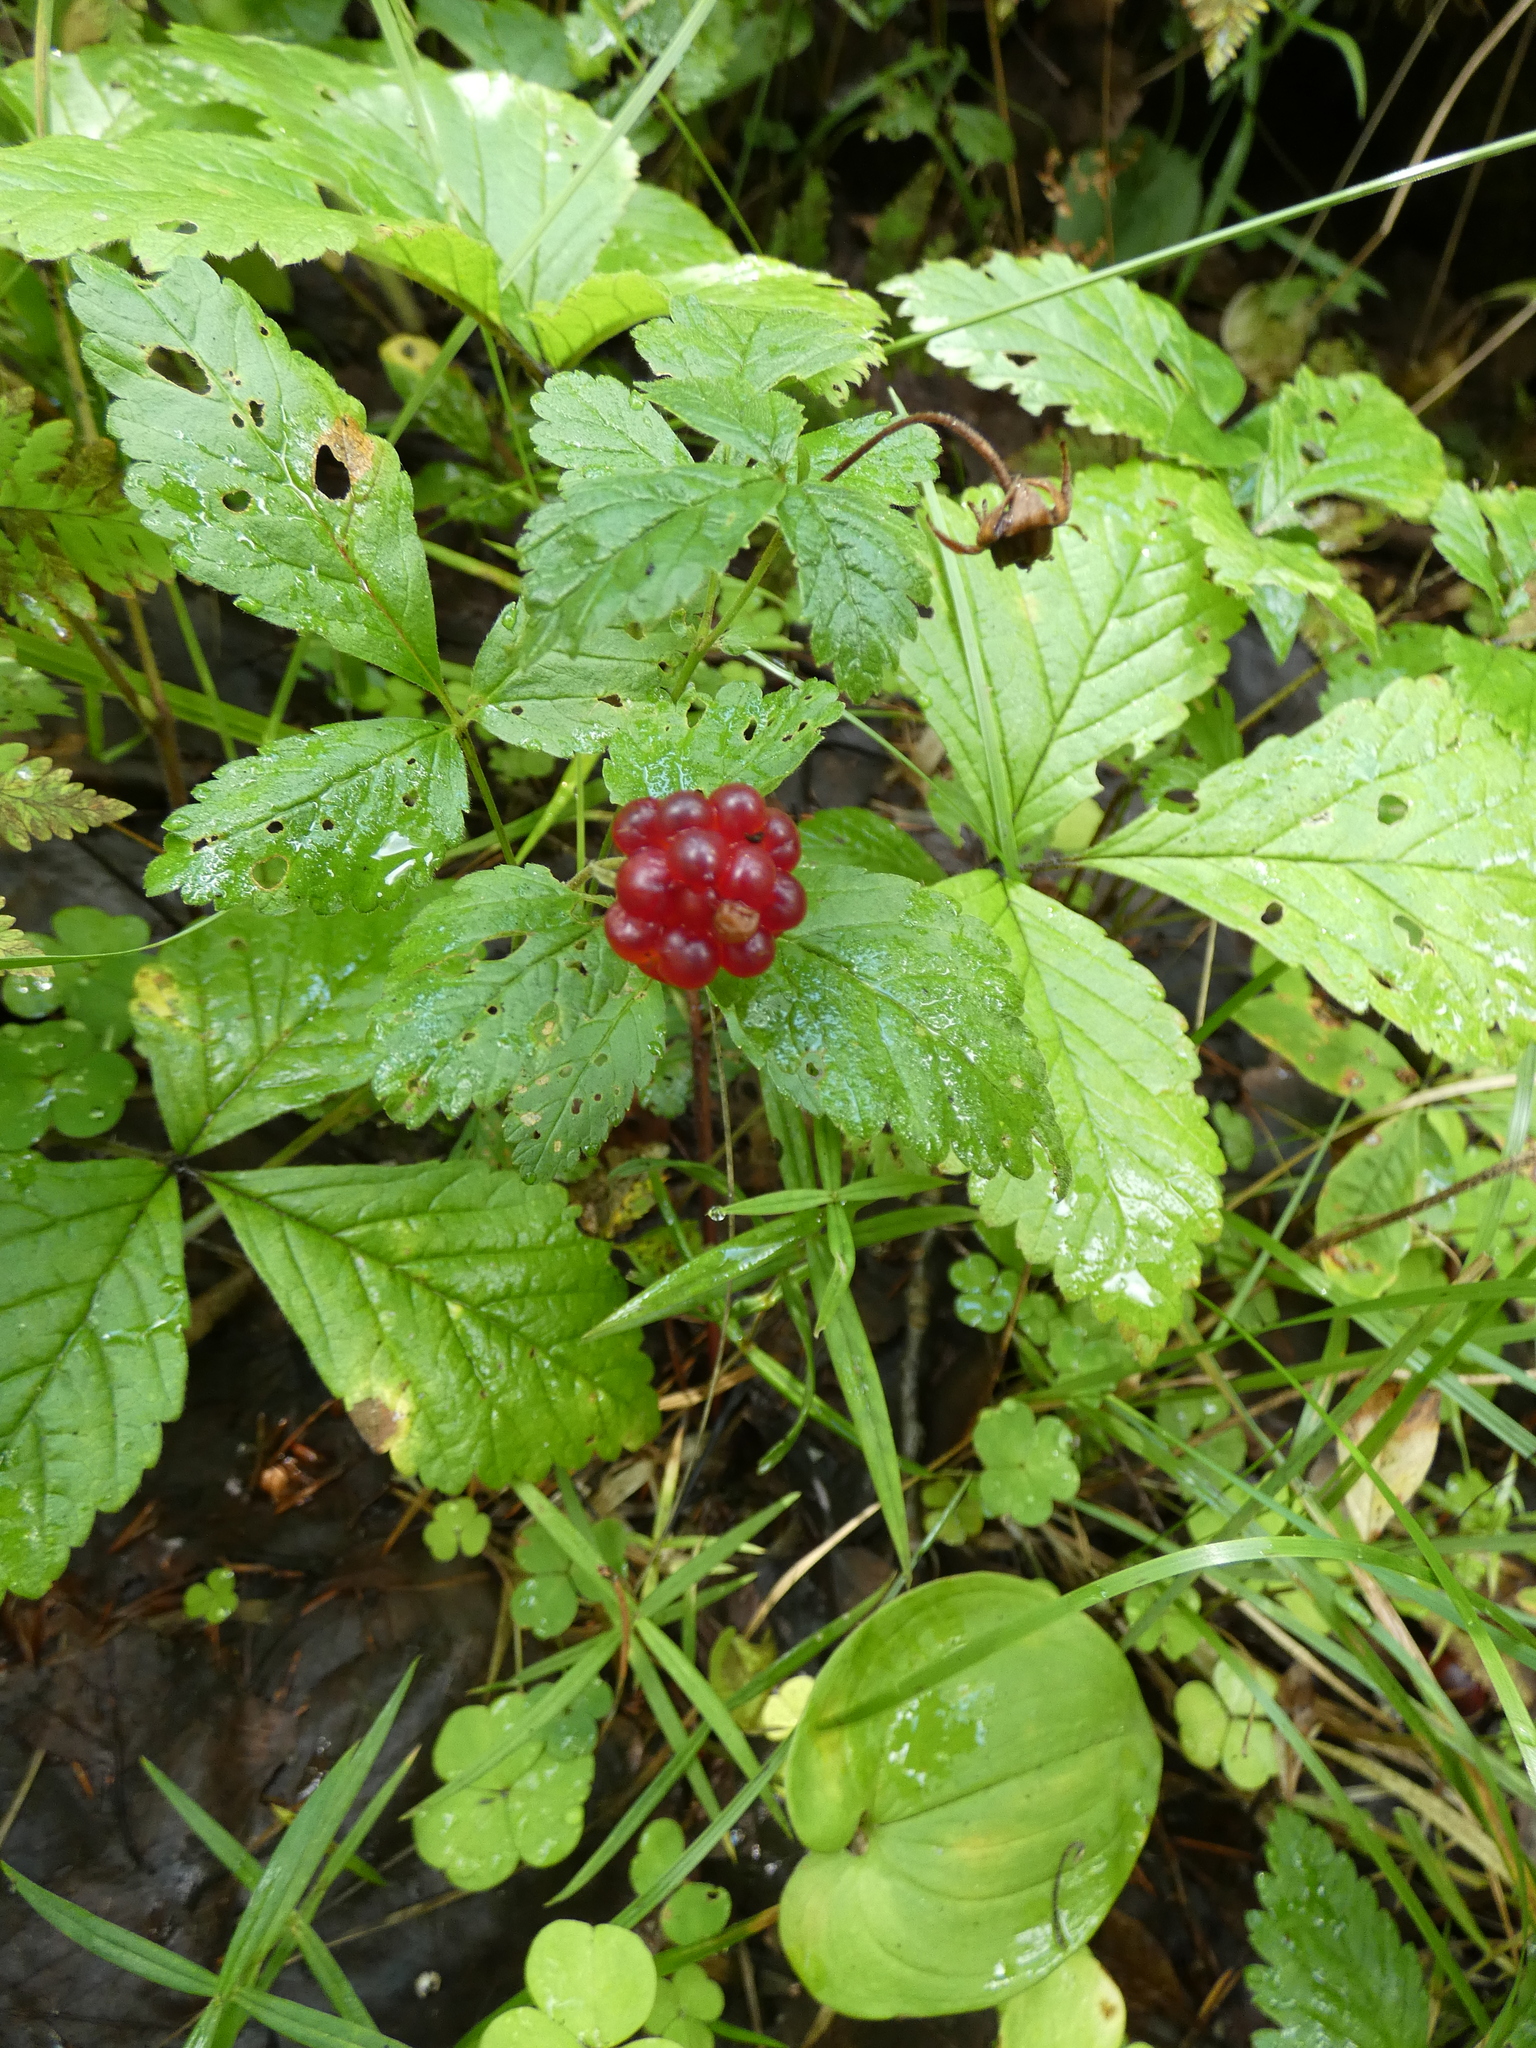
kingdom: Plantae
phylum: Tracheophyta
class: Magnoliopsida
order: Rosales
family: Rosaceae
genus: Rubus
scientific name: Rubus arcticus
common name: Arctic bramble
